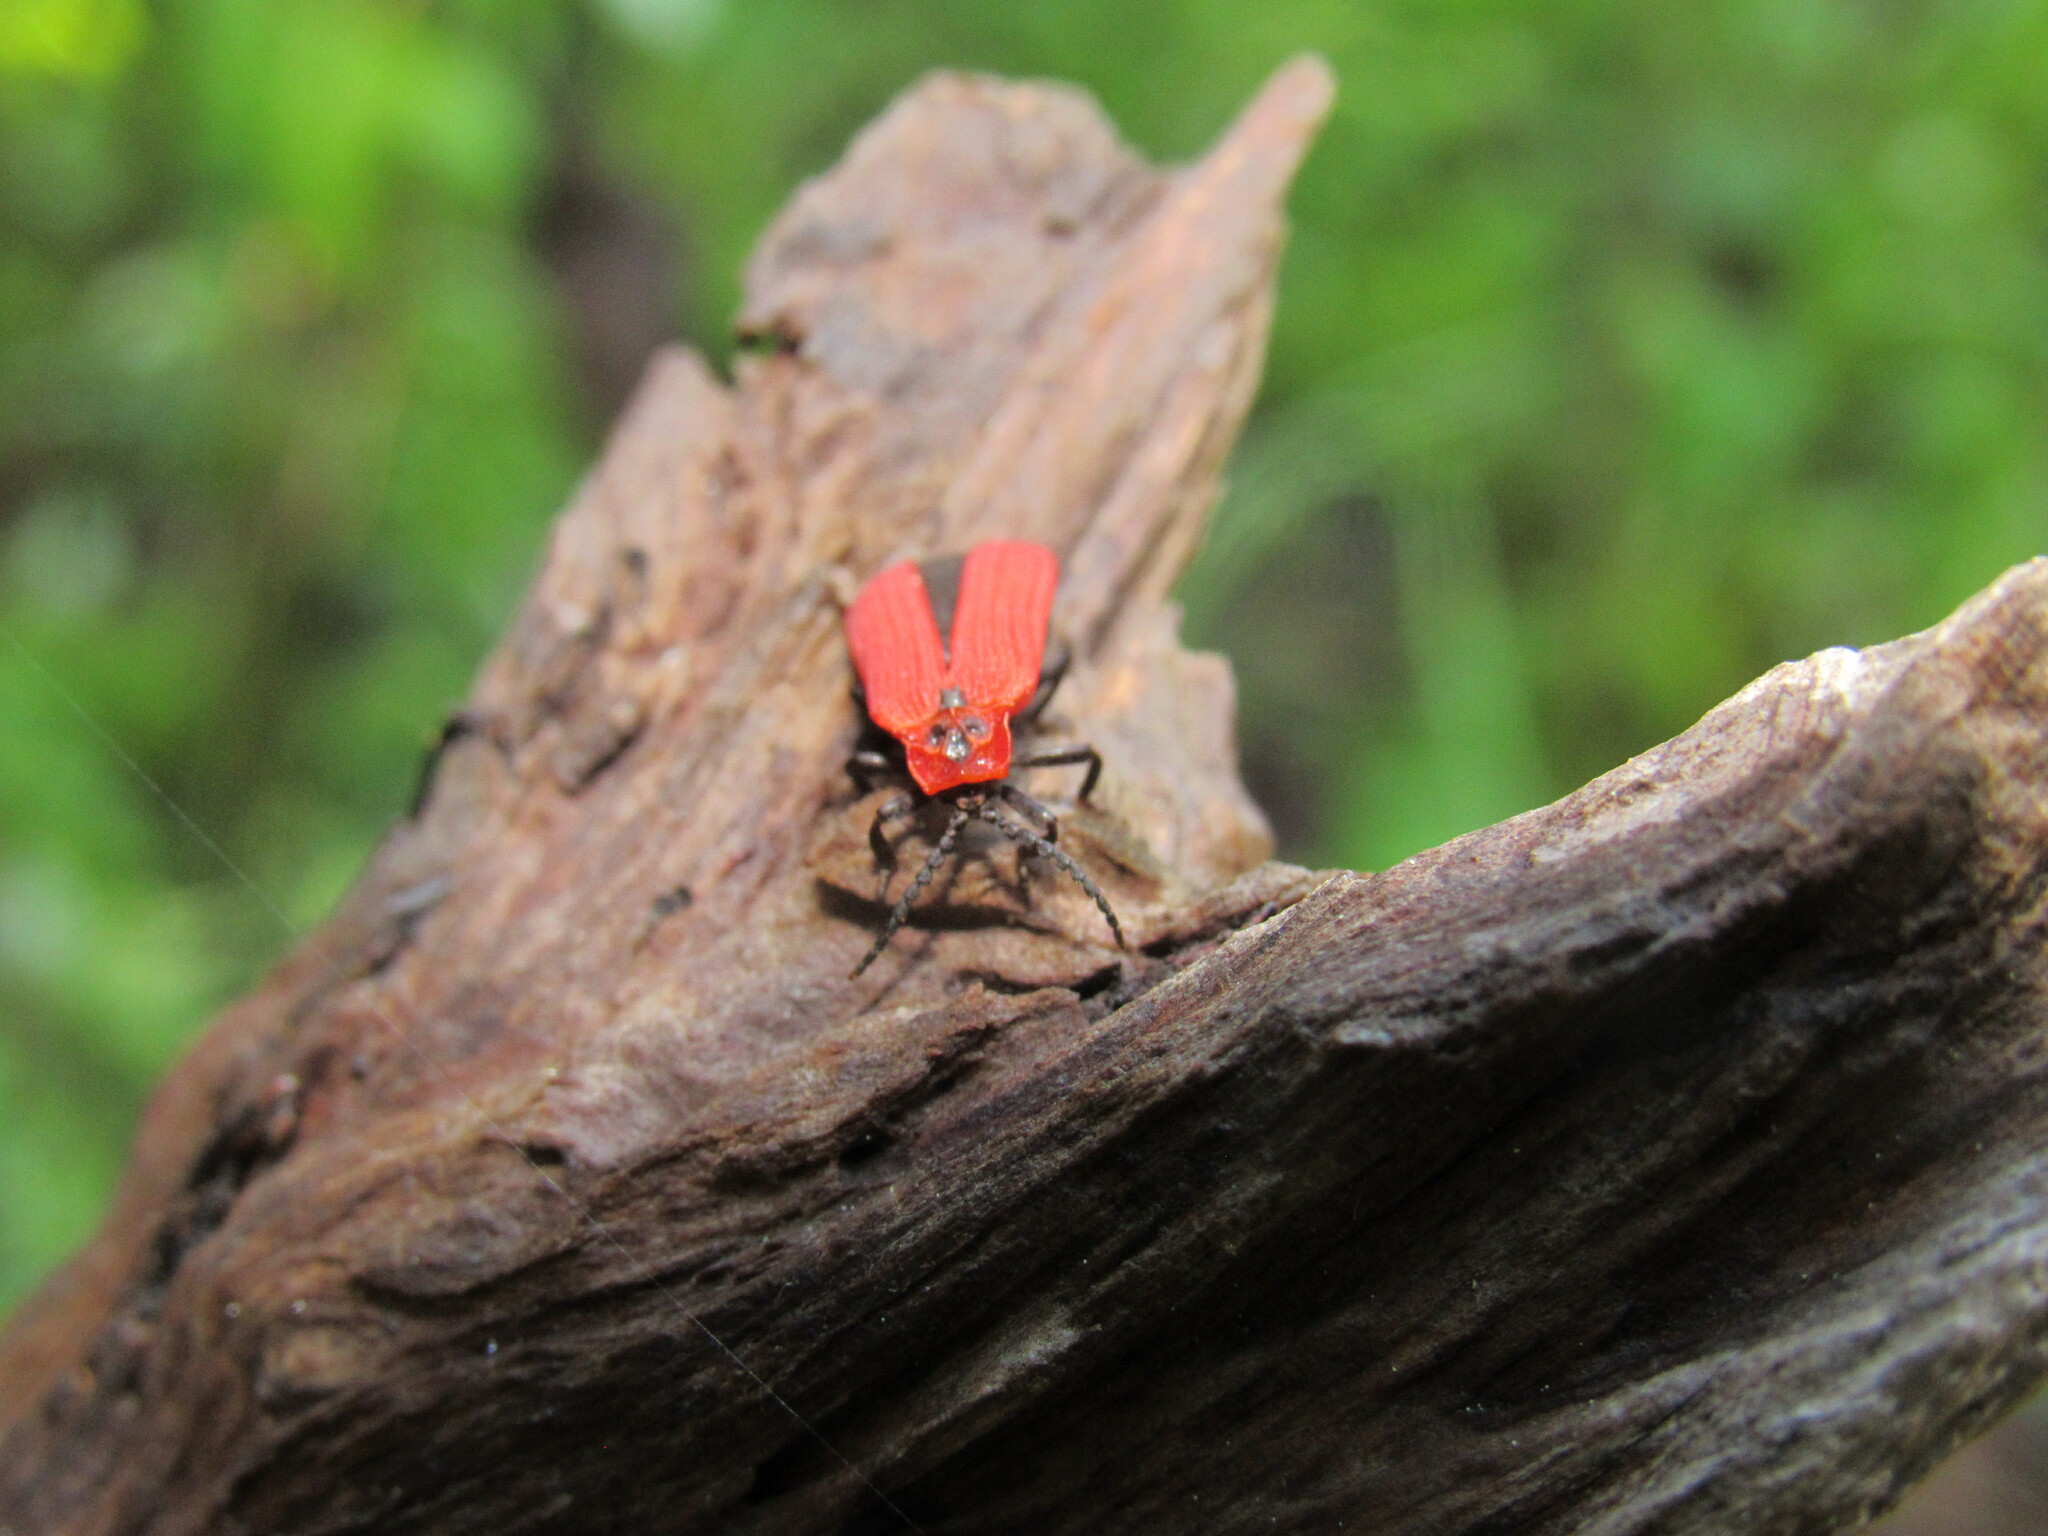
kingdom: Animalia
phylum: Arthropoda
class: Insecta
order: Coleoptera
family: Lycidae
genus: Dictyoptera
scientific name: Dictyoptera aurora
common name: Golden net-winged beetle
